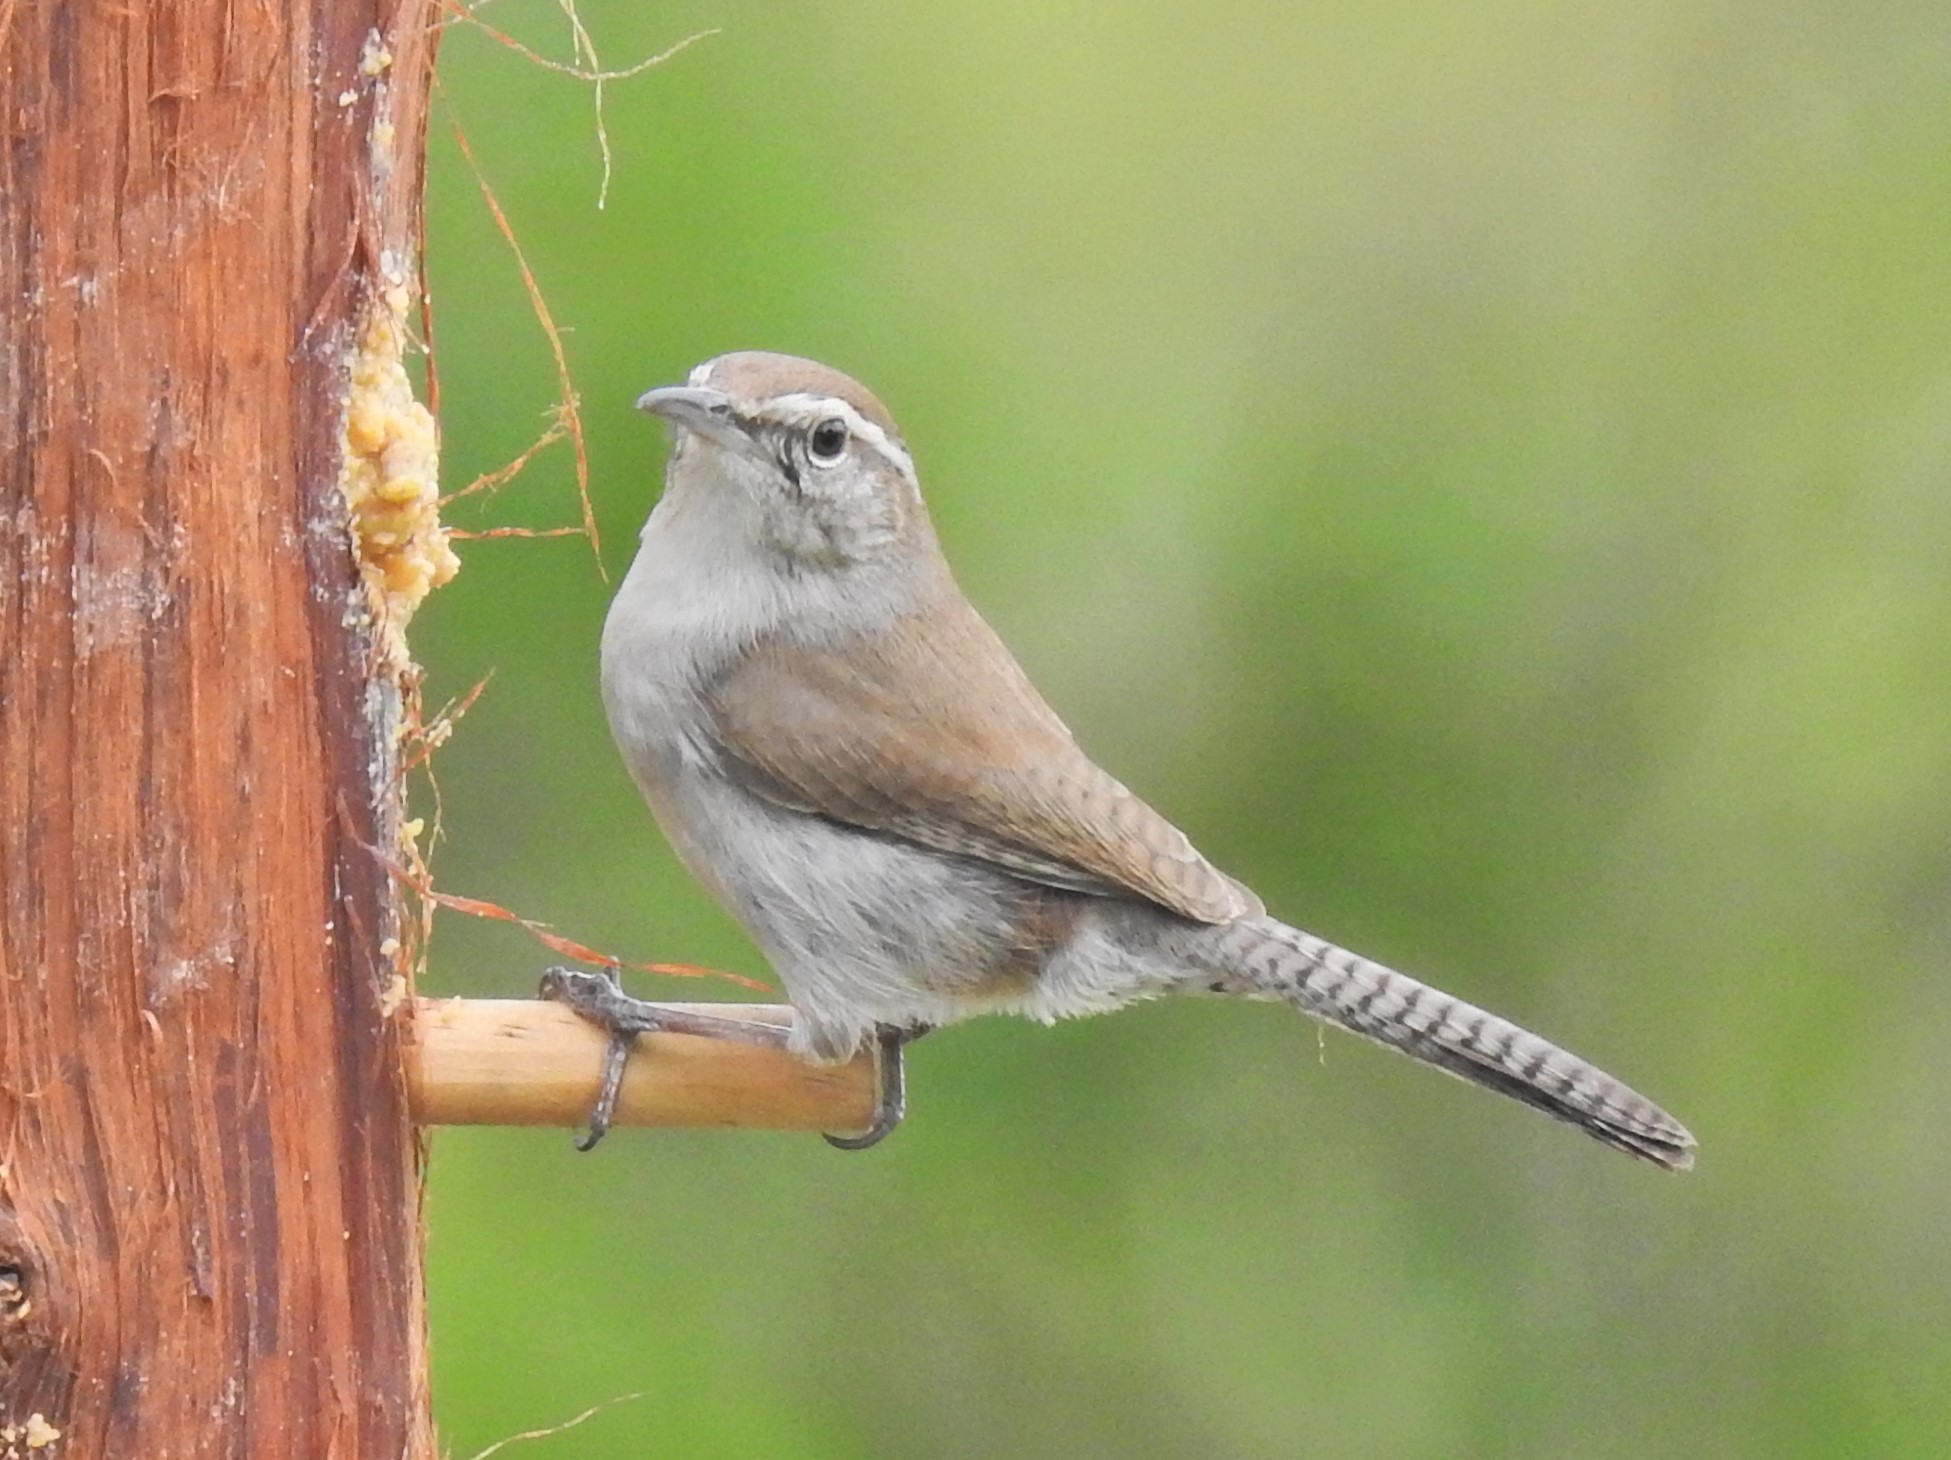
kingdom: Animalia
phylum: Chordata
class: Aves
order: Passeriformes
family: Troglodytidae
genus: Thryomanes
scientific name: Thryomanes bewickii
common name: Bewick's wren
